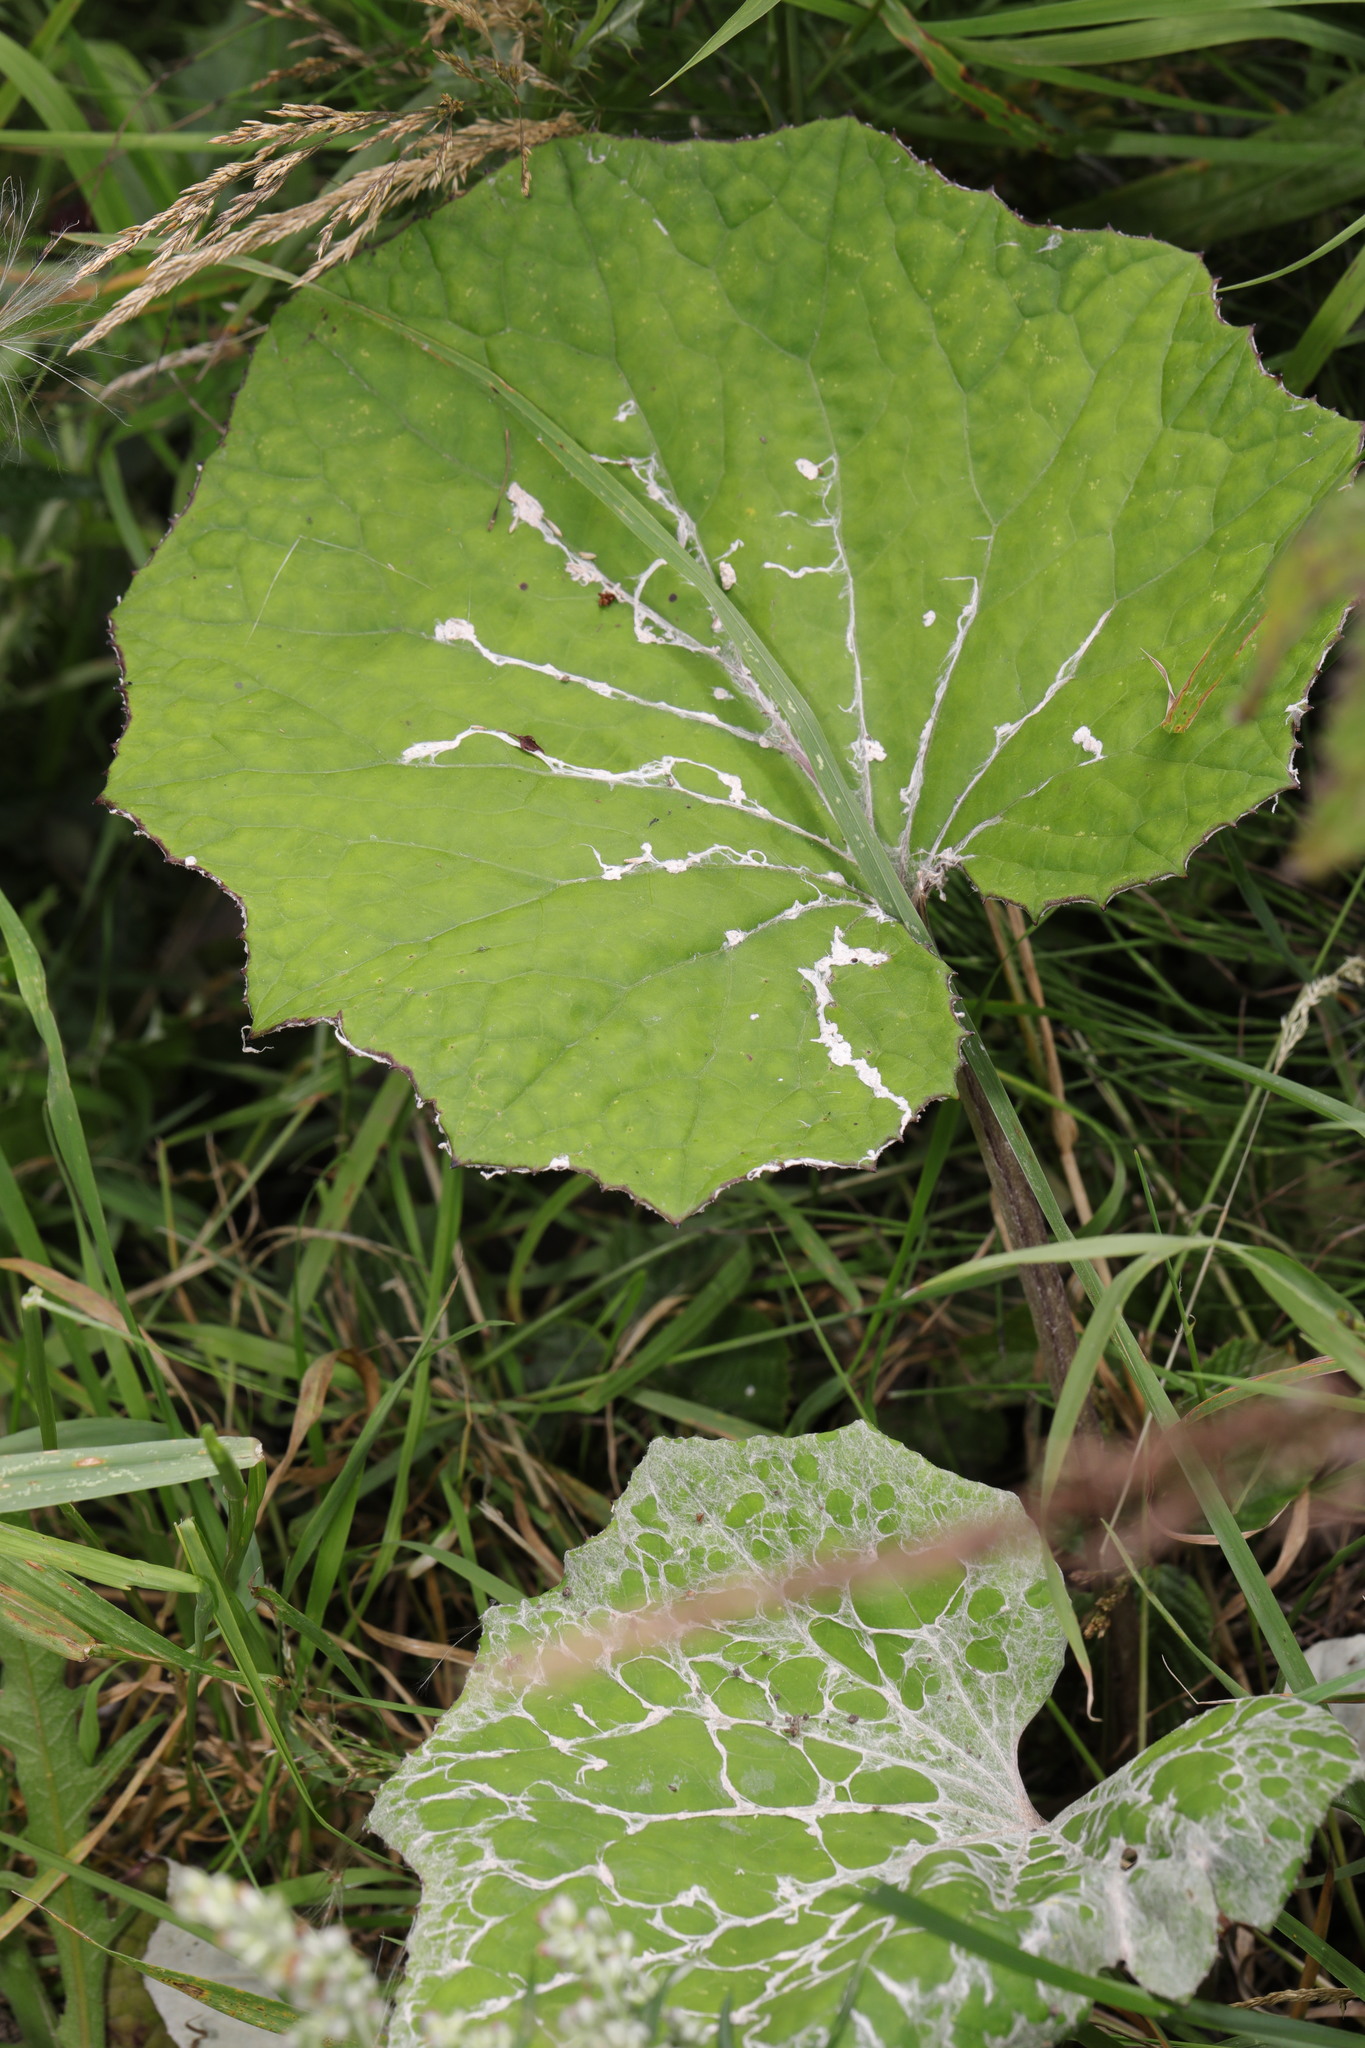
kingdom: Plantae
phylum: Tracheophyta
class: Magnoliopsida
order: Asterales
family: Asteraceae
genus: Tussilago
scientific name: Tussilago farfara
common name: Coltsfoot
